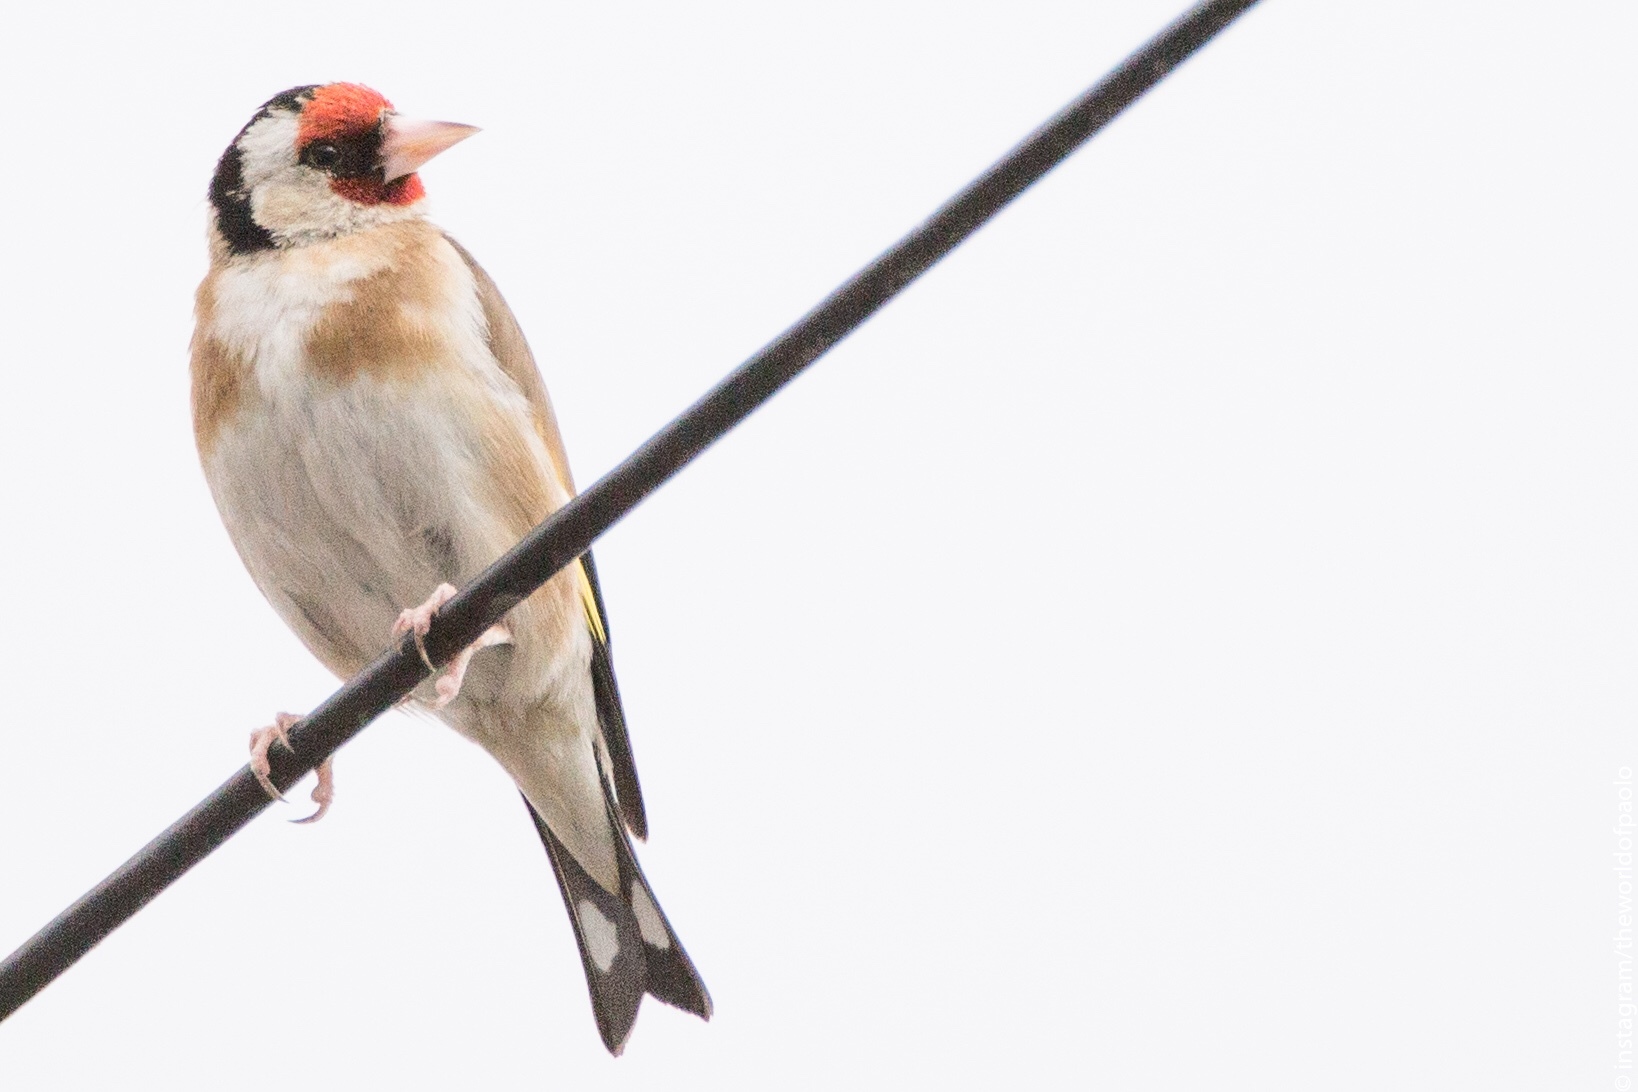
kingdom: Animalia
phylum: Chordata
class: Aves
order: Passeriformes
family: Fringillidae
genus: Carduelis
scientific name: Carduelis carduelis
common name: European goldfinch
